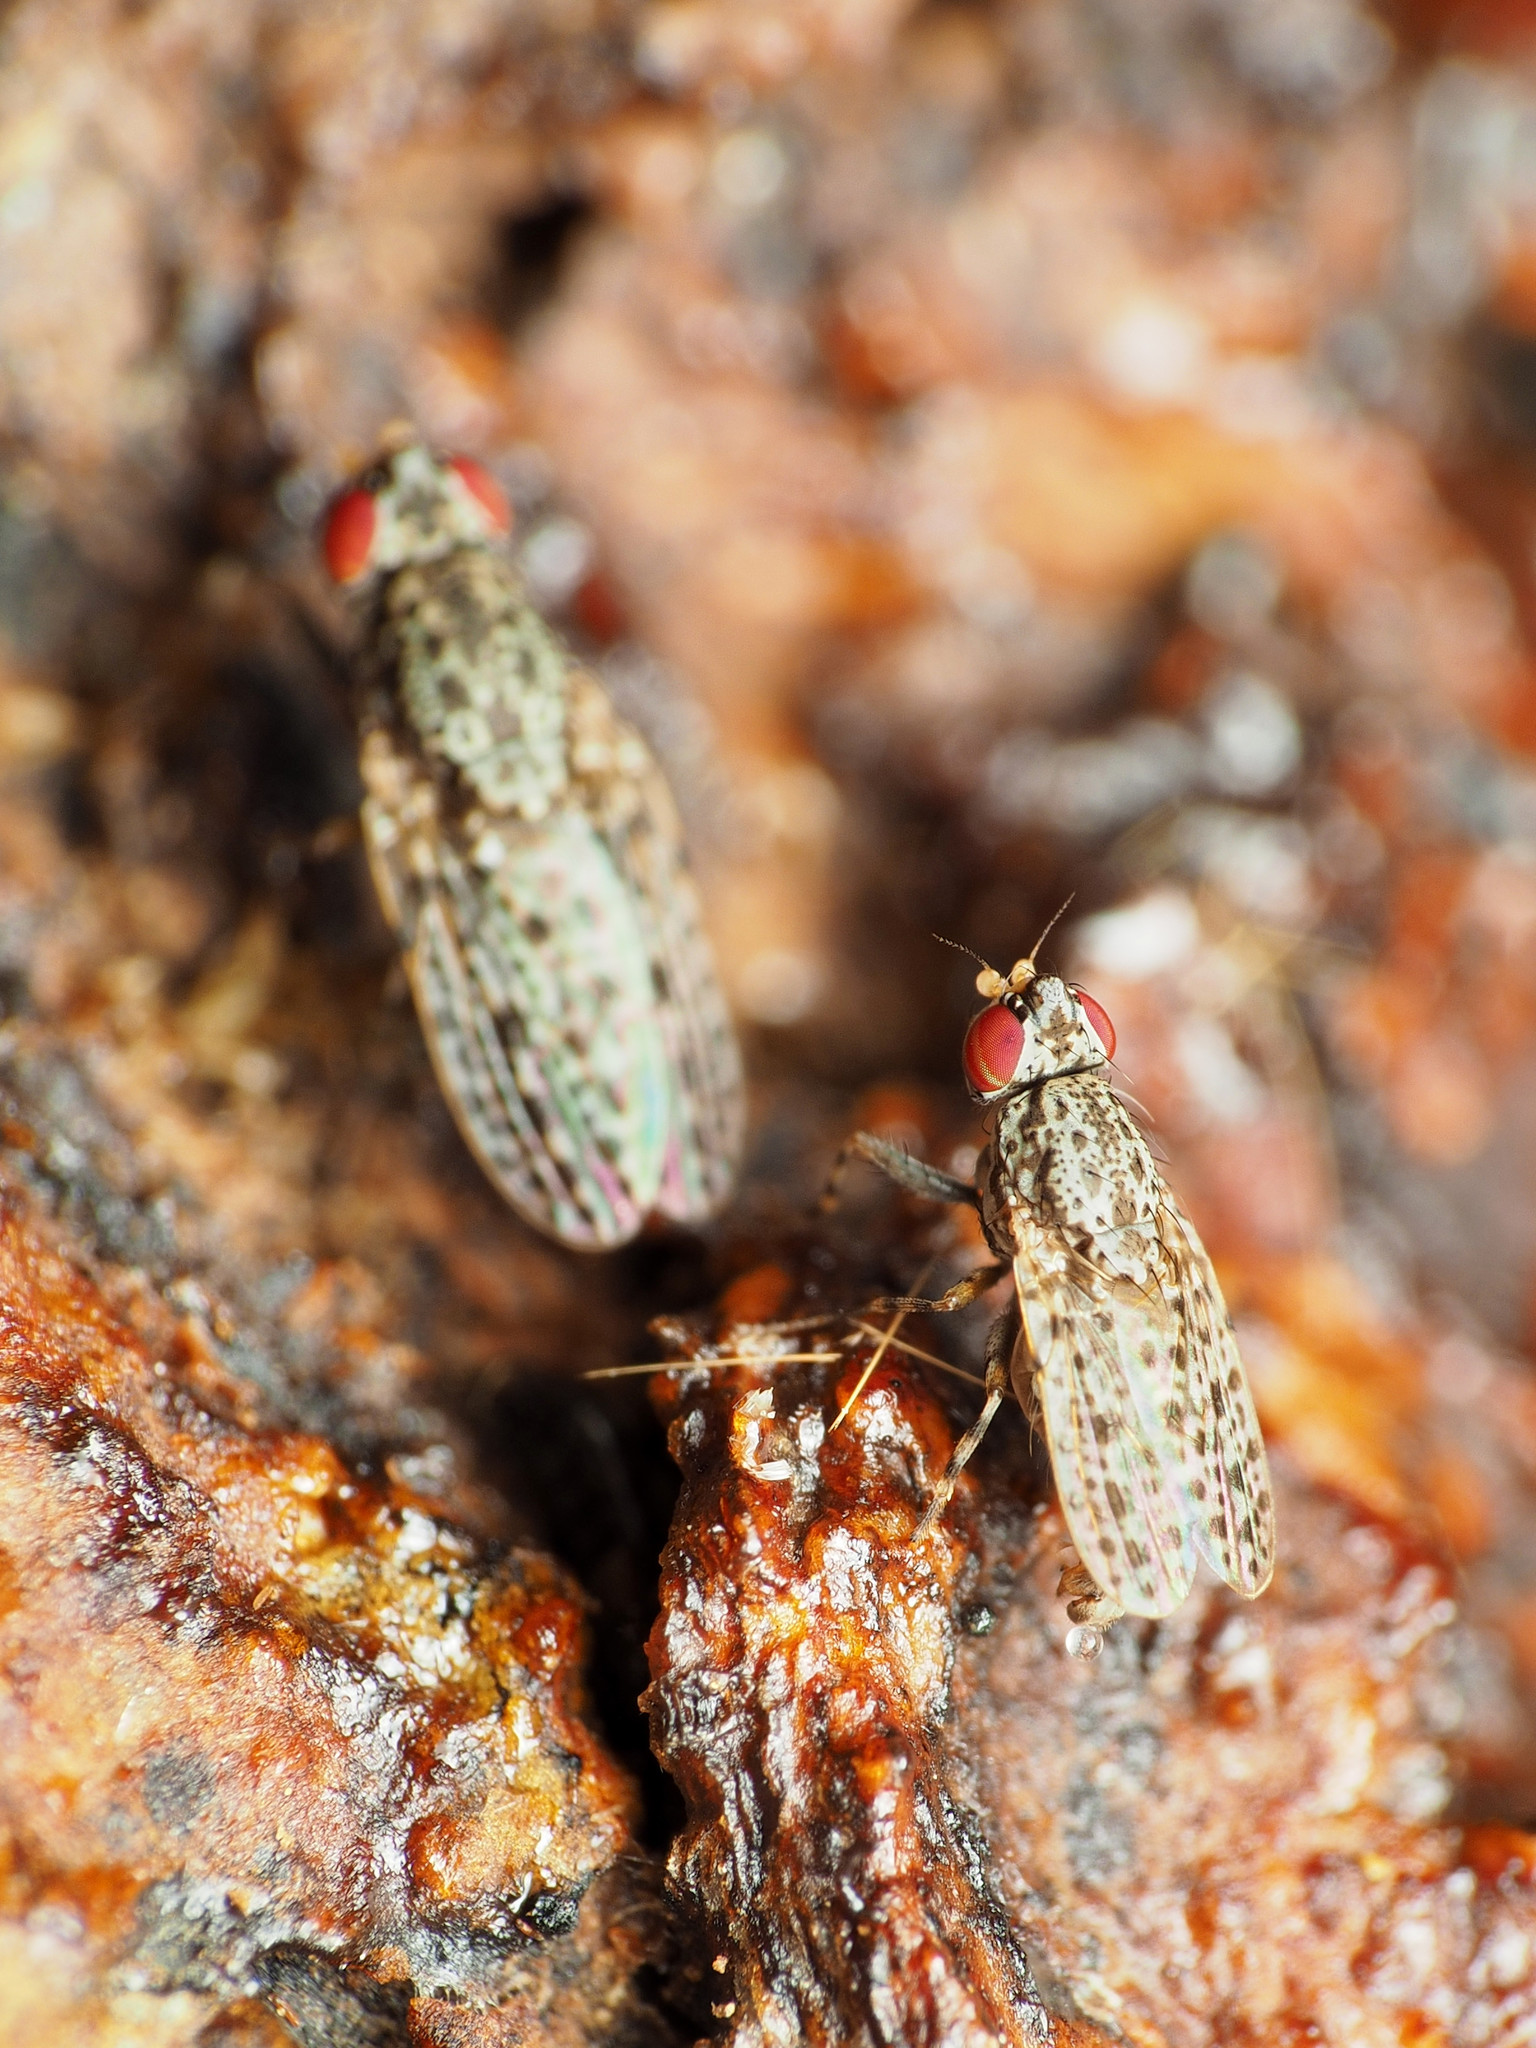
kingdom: Animalia
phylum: Arthropoda
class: Insecta
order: Diptera
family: Odiniidae
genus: Traginops
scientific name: Traginops irroratus
